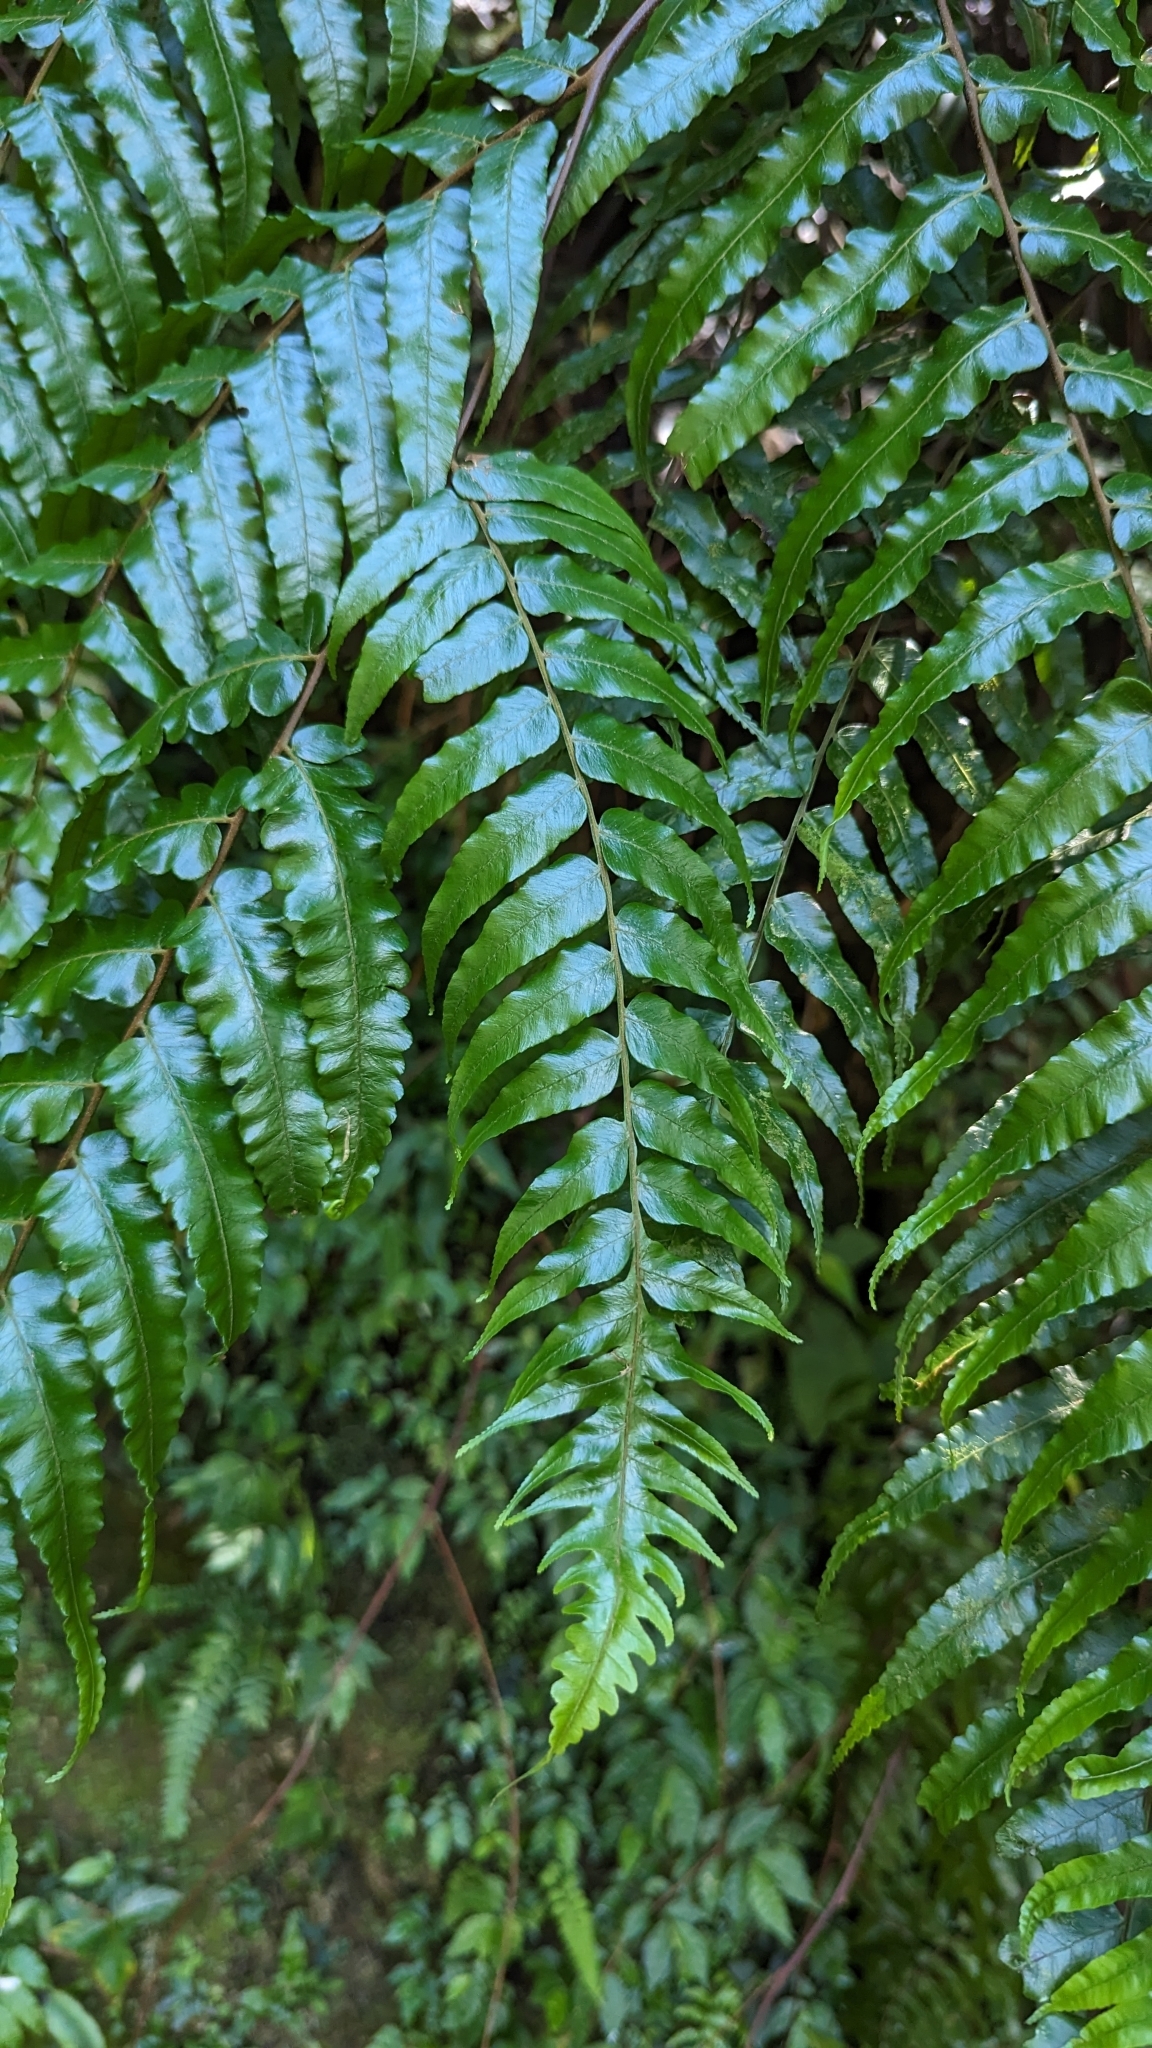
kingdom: Plantae
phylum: Tracheophyta
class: Polypodiopsida
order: Cyatheales
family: Cyatheaceae
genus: Gymnosphaera
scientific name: Gymnosphaera podophylla
